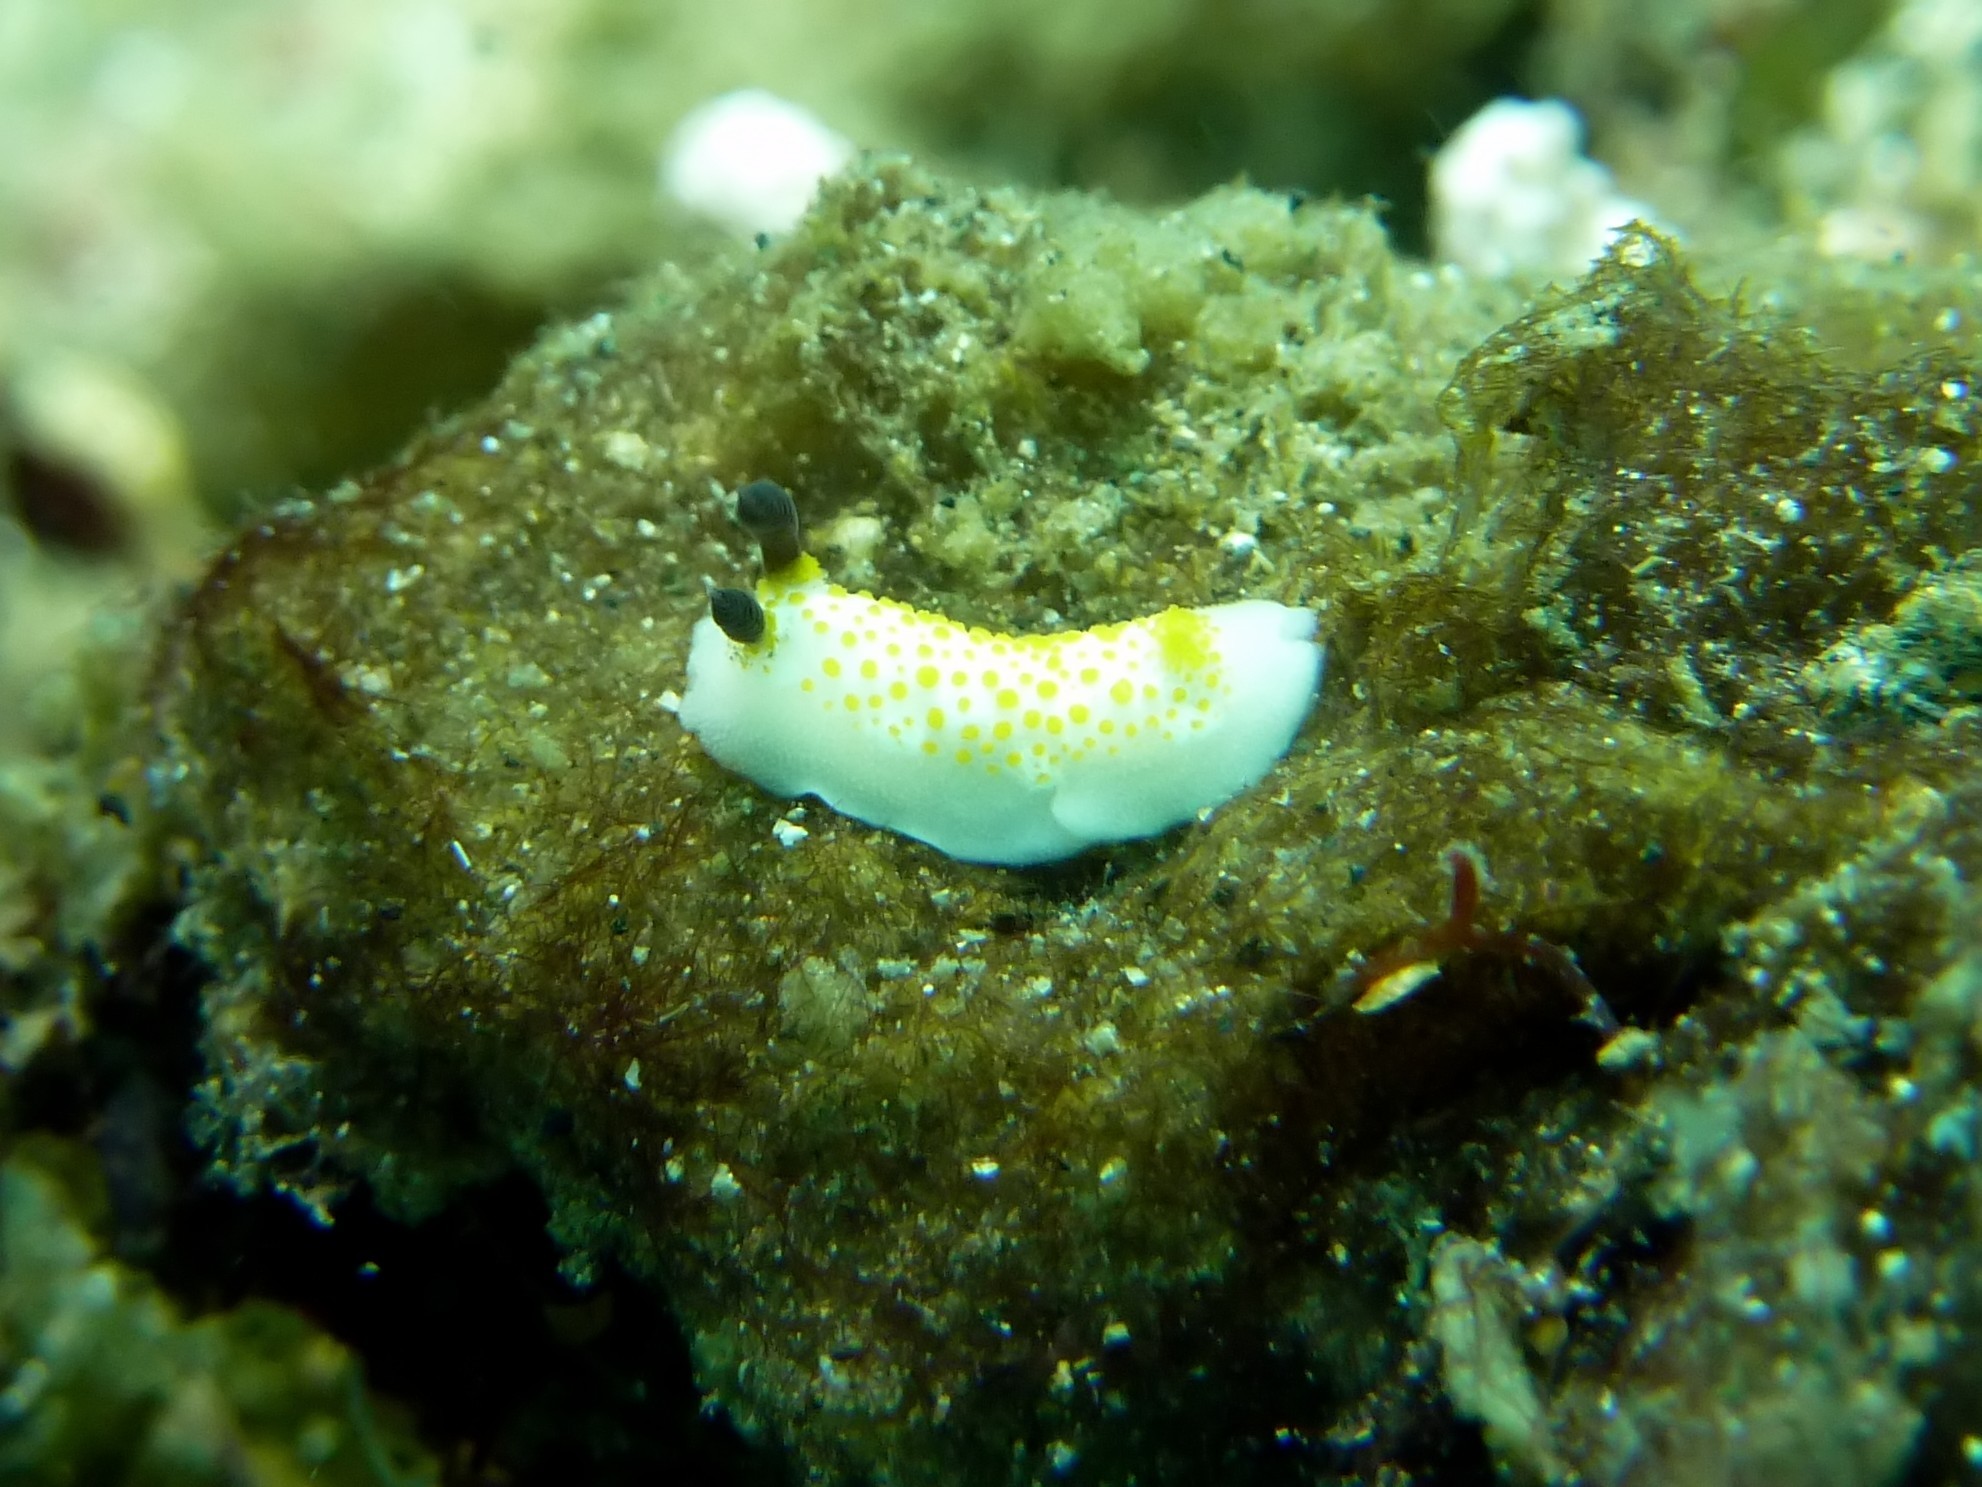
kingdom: Animalia
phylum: Mollusca
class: Gastropoda
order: Nudibranchia
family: Discodorididae
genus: Taringa
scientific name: Taringa halgerda
